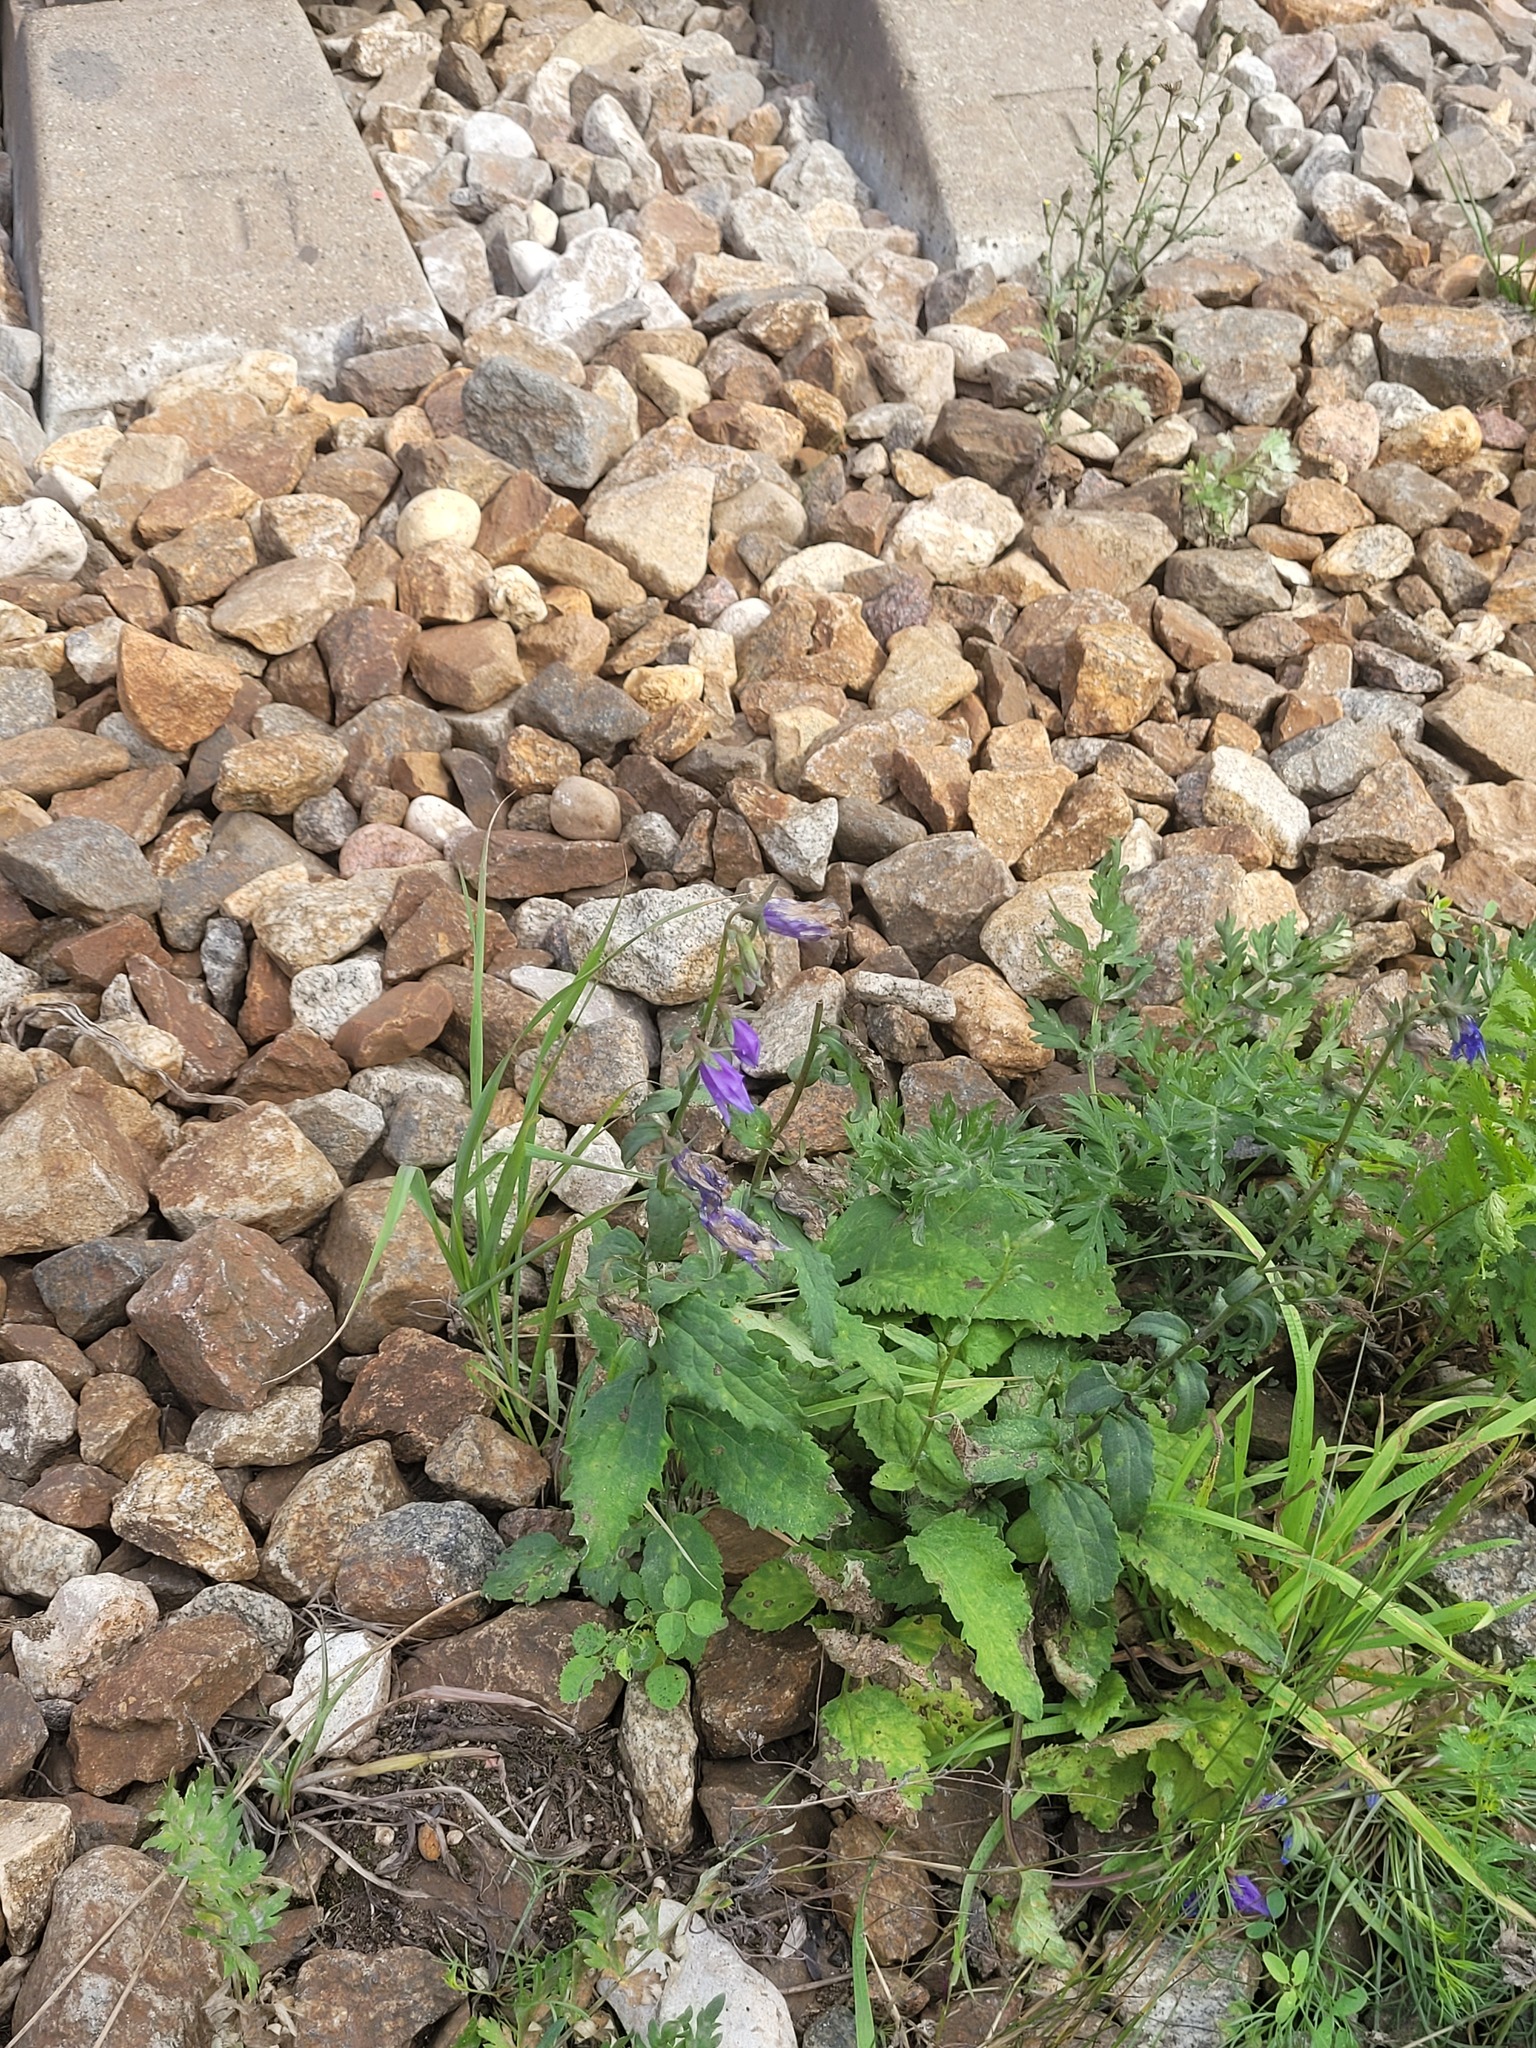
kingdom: Plantae
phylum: Tracheophyta
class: Magnoliopsida
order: Asterales
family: Campanulaceae
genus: Campanula
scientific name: Campanula rapunculoides
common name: Creeping bellflower
